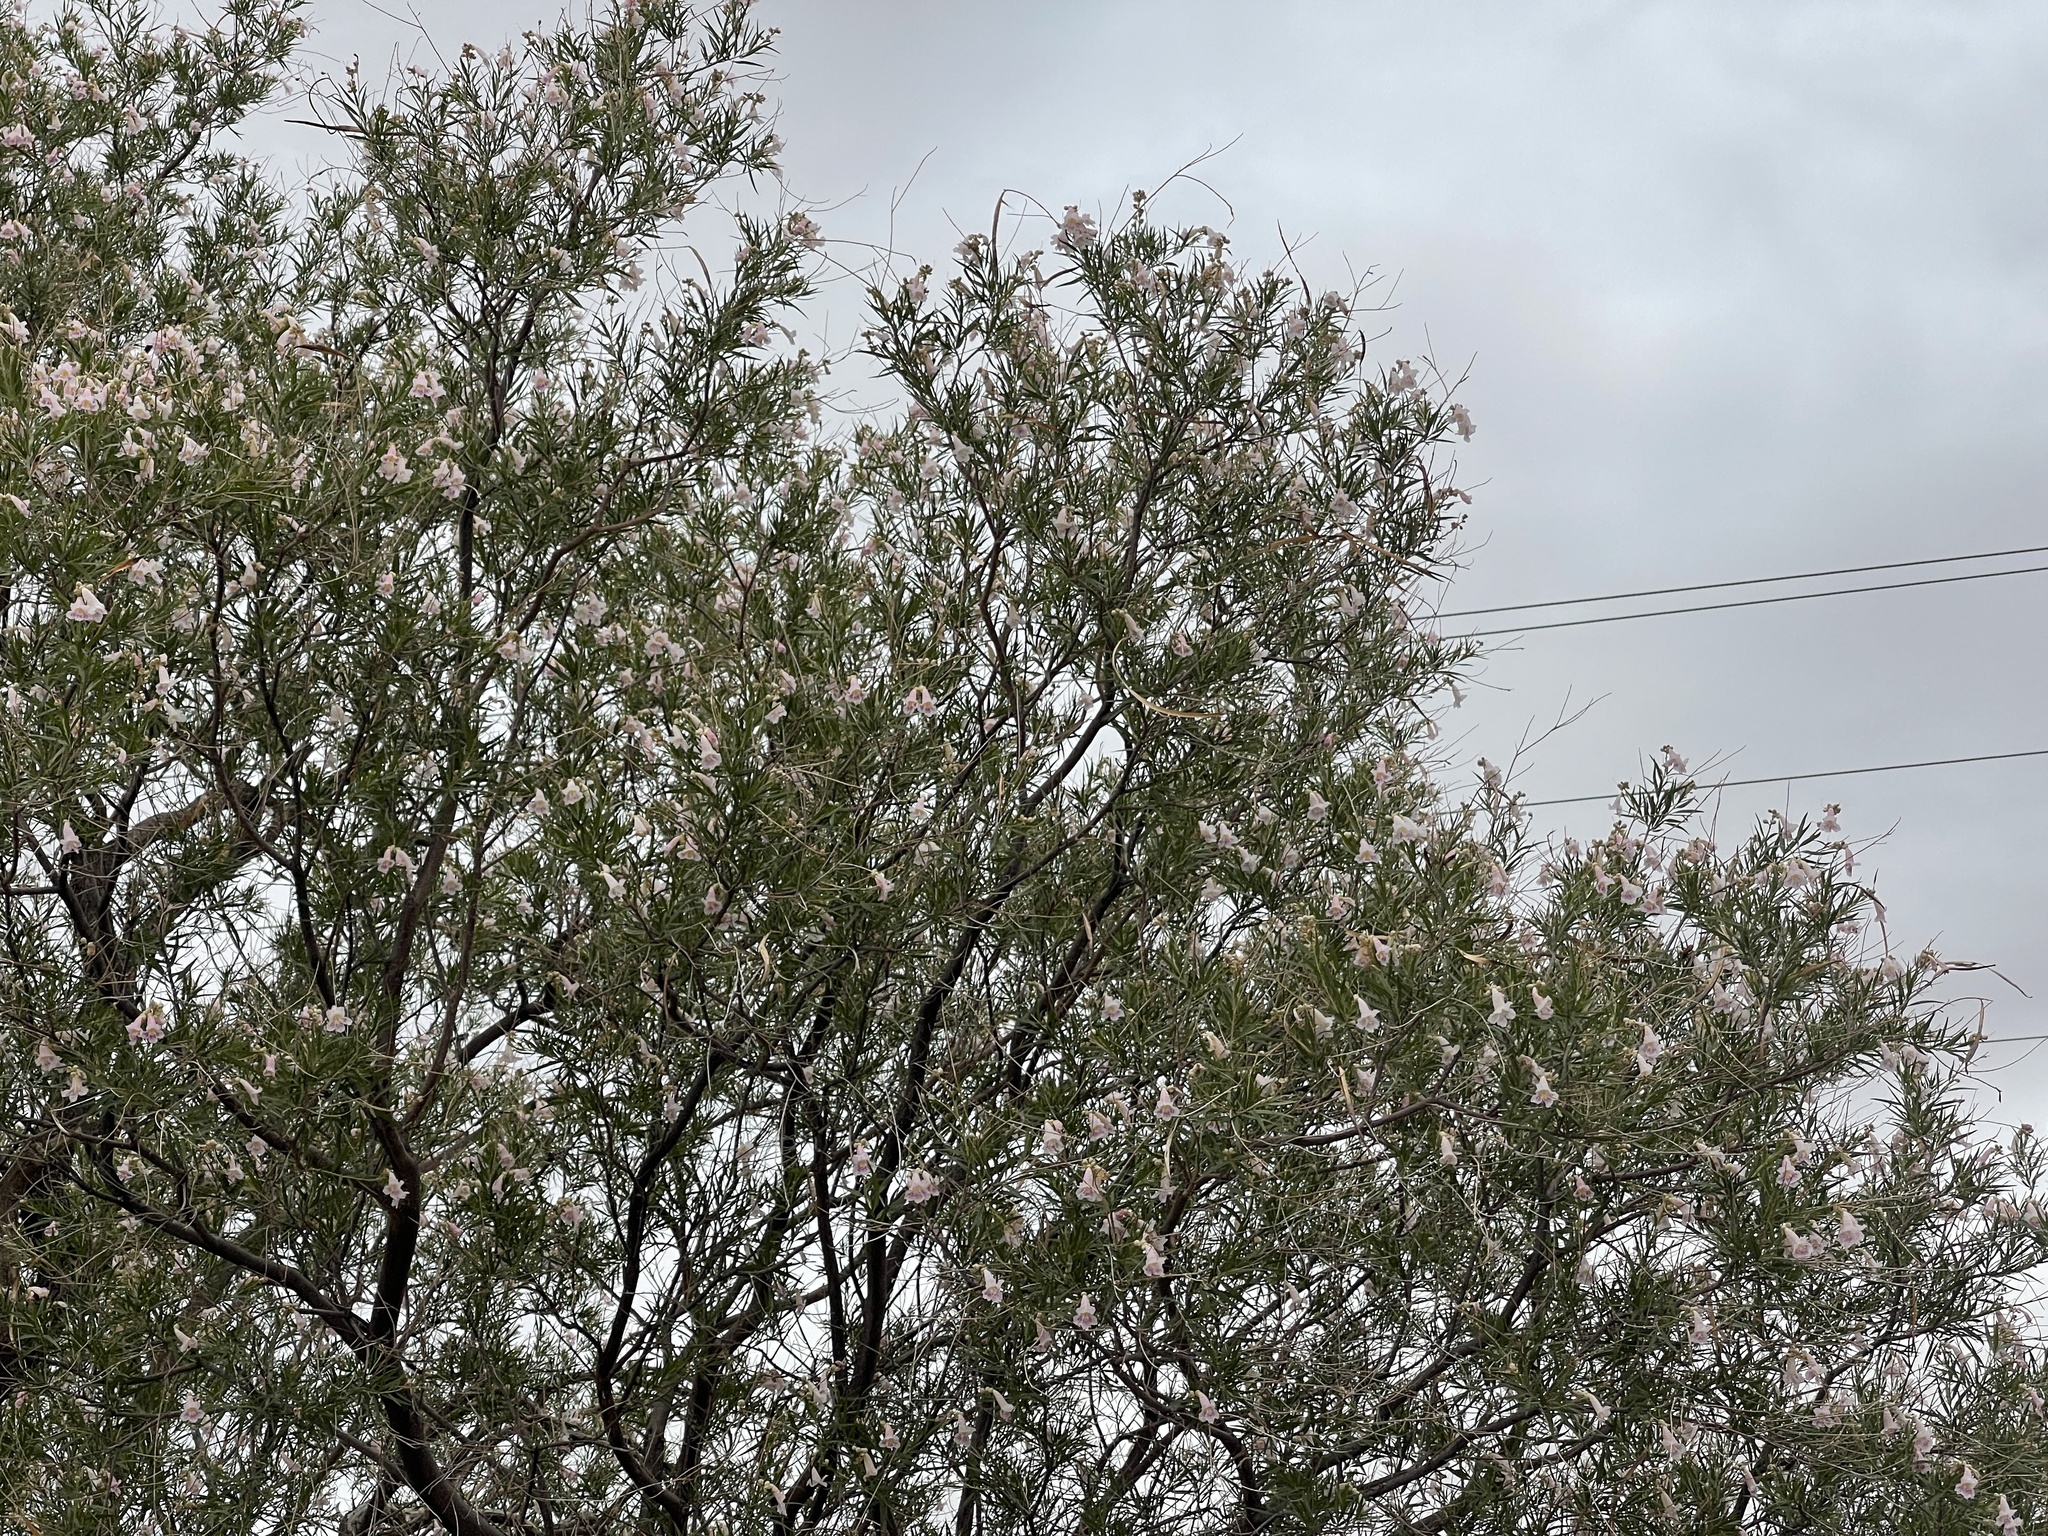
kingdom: Plantae
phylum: Tracheophyta
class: Magnoliopsida
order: Lamiales
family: Bignoniaceae
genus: Chilopsis
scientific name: Chilopsis linearis
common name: Desert-willow
